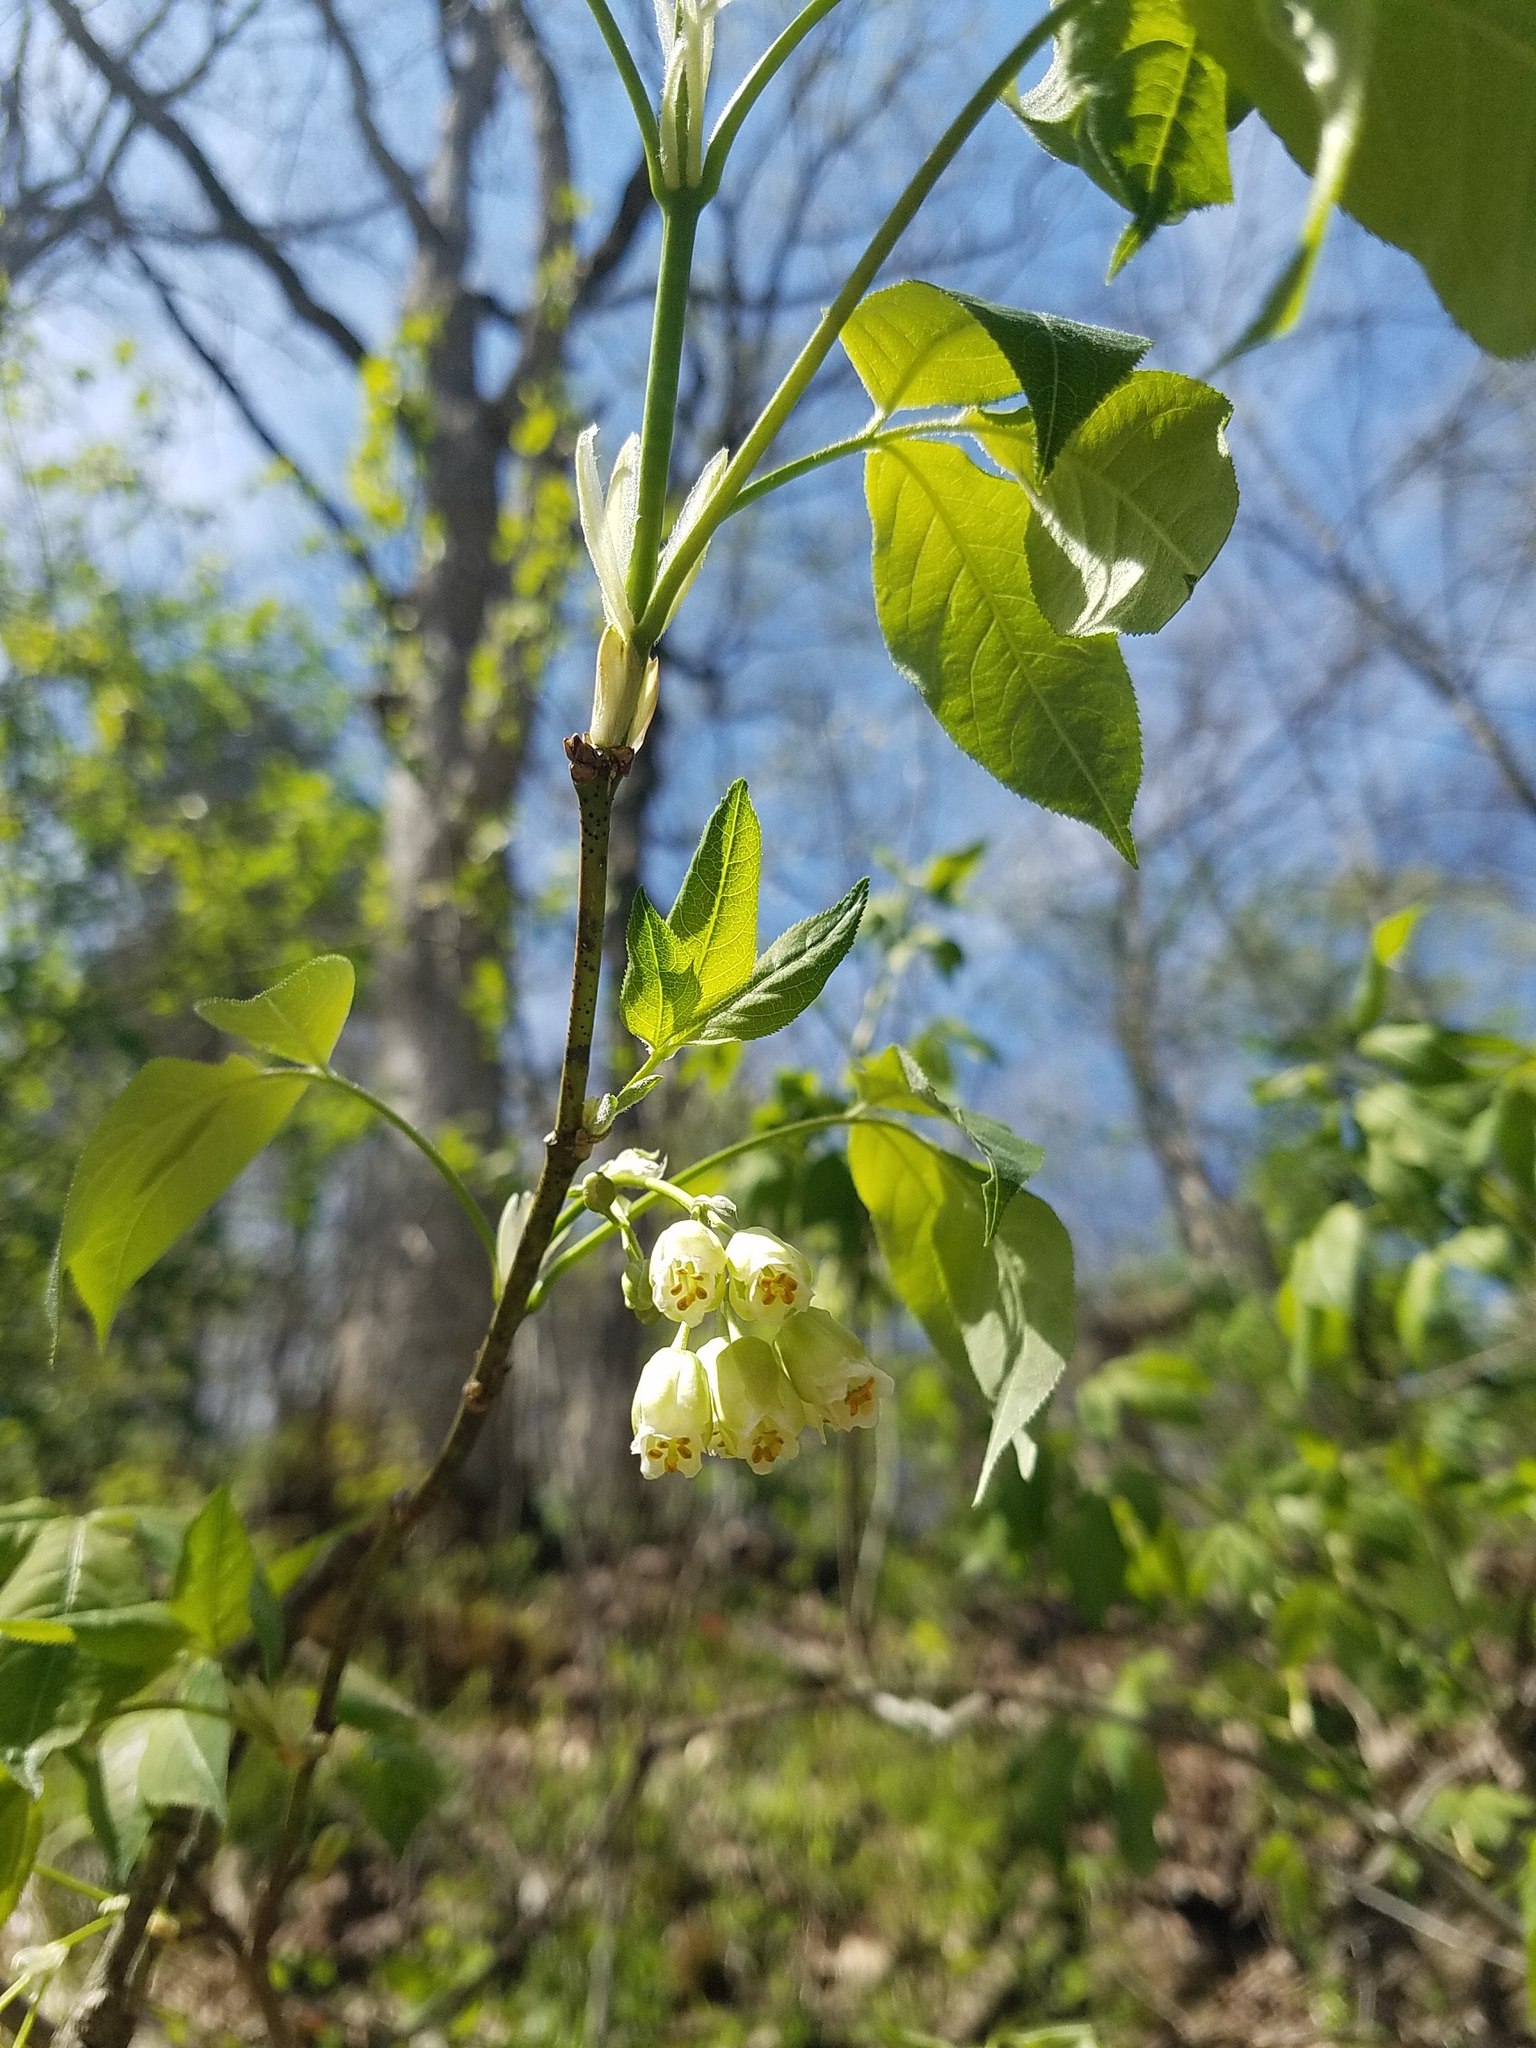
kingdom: Plantae
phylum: Tracheophyta
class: Magnoliopsida
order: Crossosomatales
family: Staphyleaceae
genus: Staphylea
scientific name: Staphylea trifolia
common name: American bladdernut
